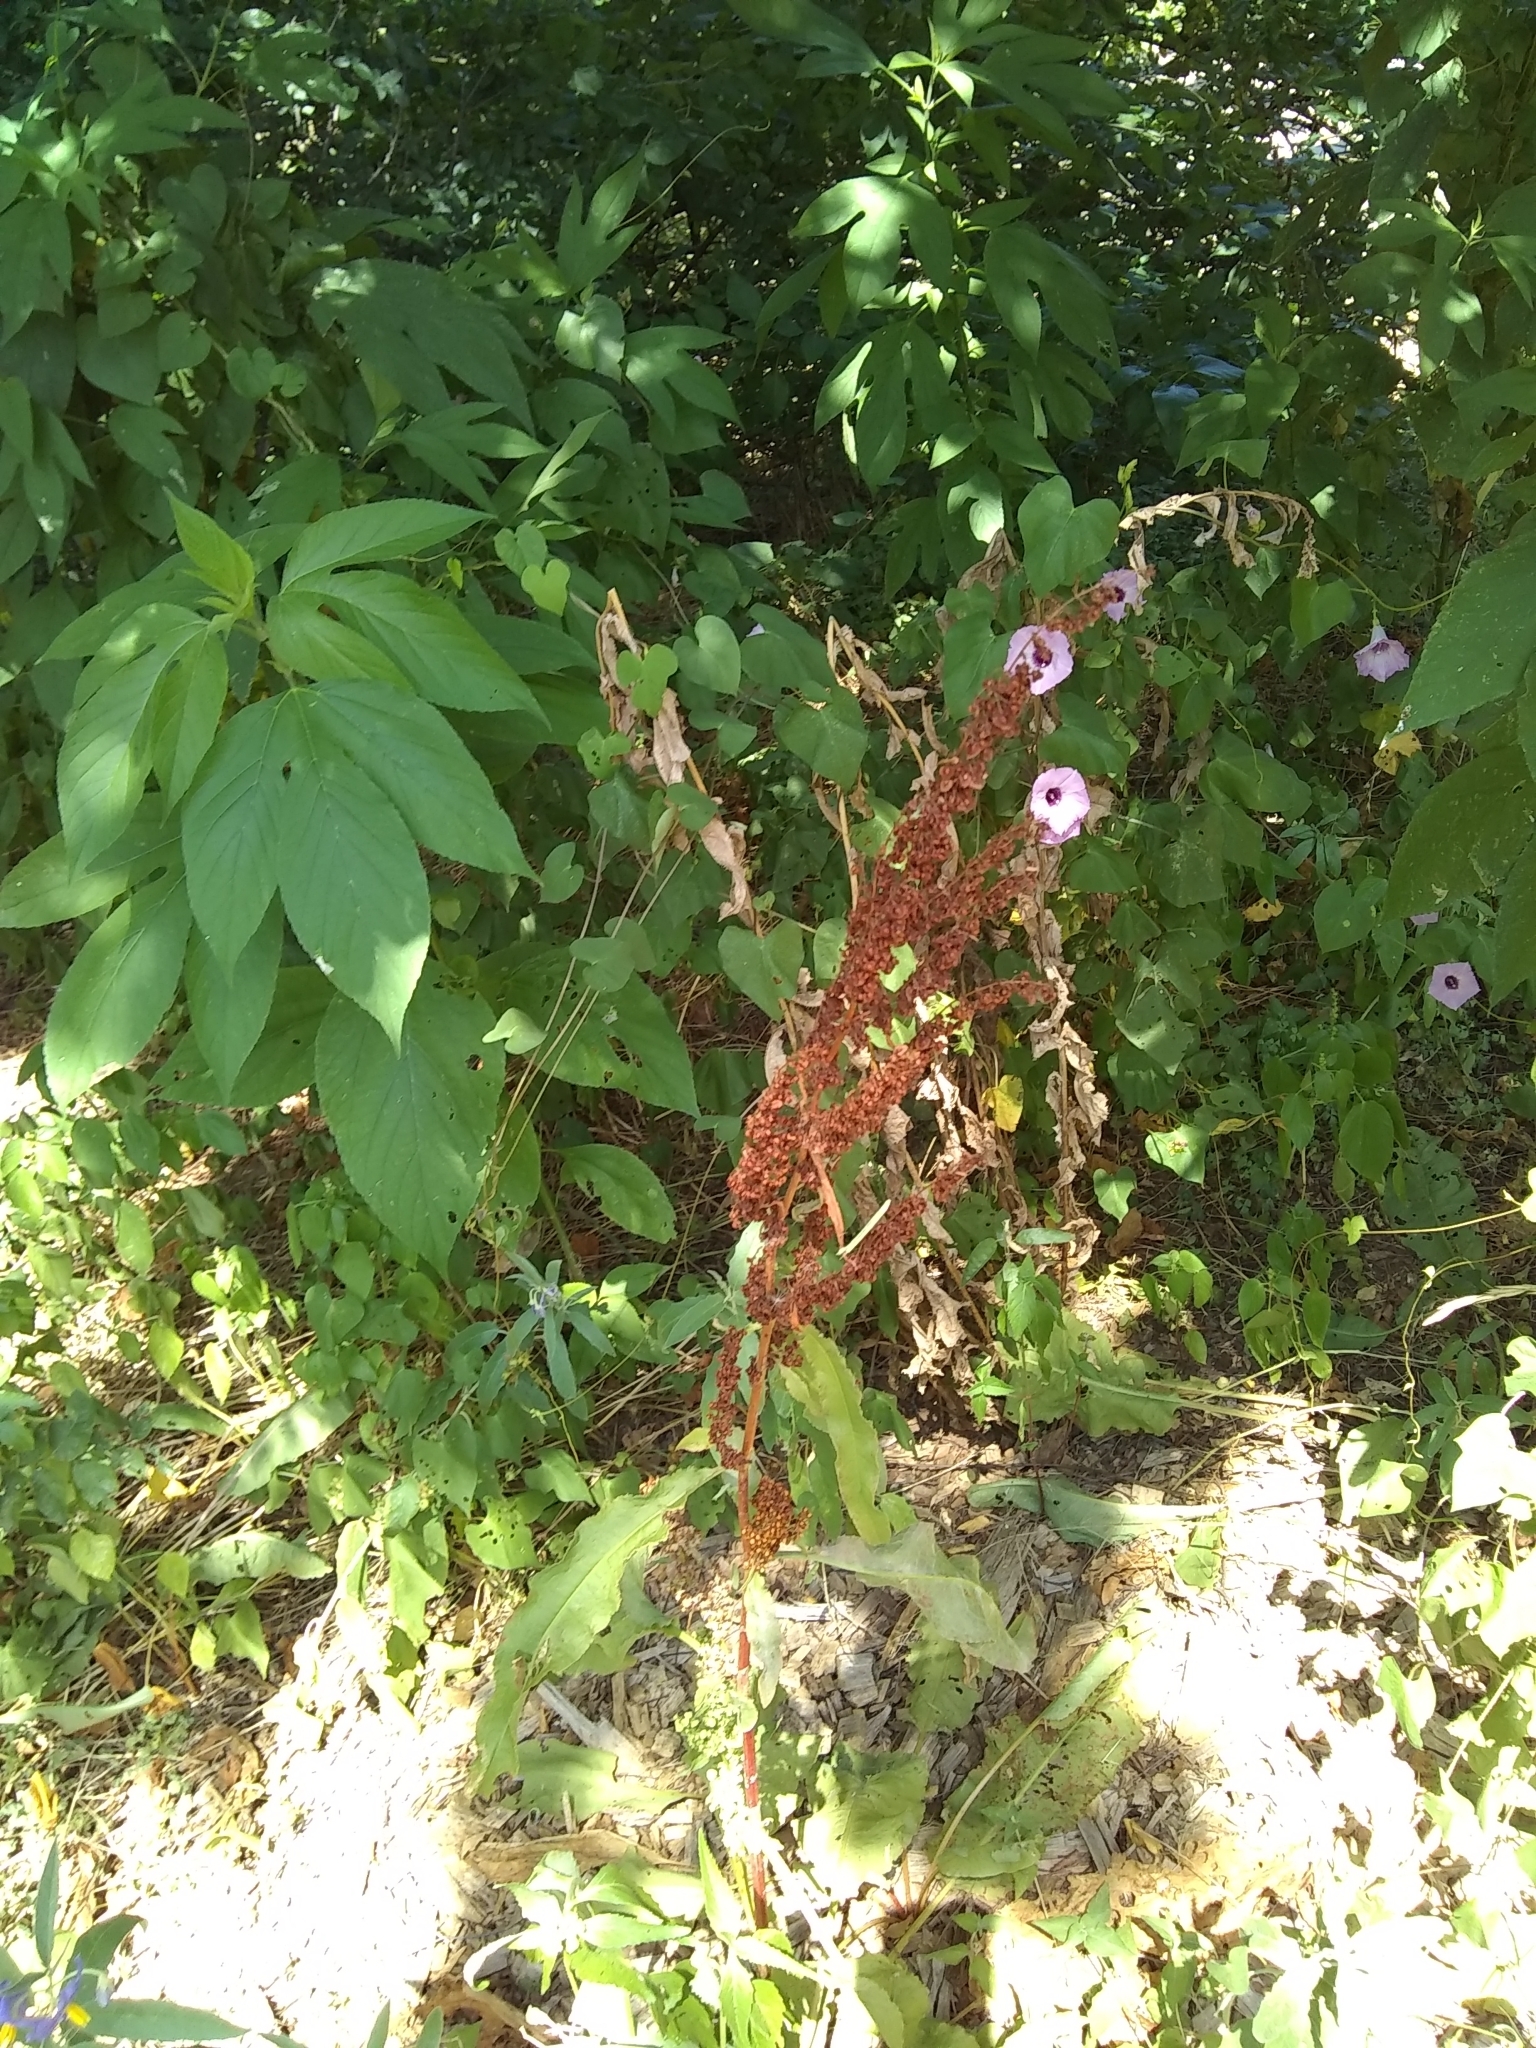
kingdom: Plantae
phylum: Tracheophyta
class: Magnoliopsida
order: Caryophyllales
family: Polygonaceae
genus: Rumex
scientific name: Rumex crispus
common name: Curled dock
